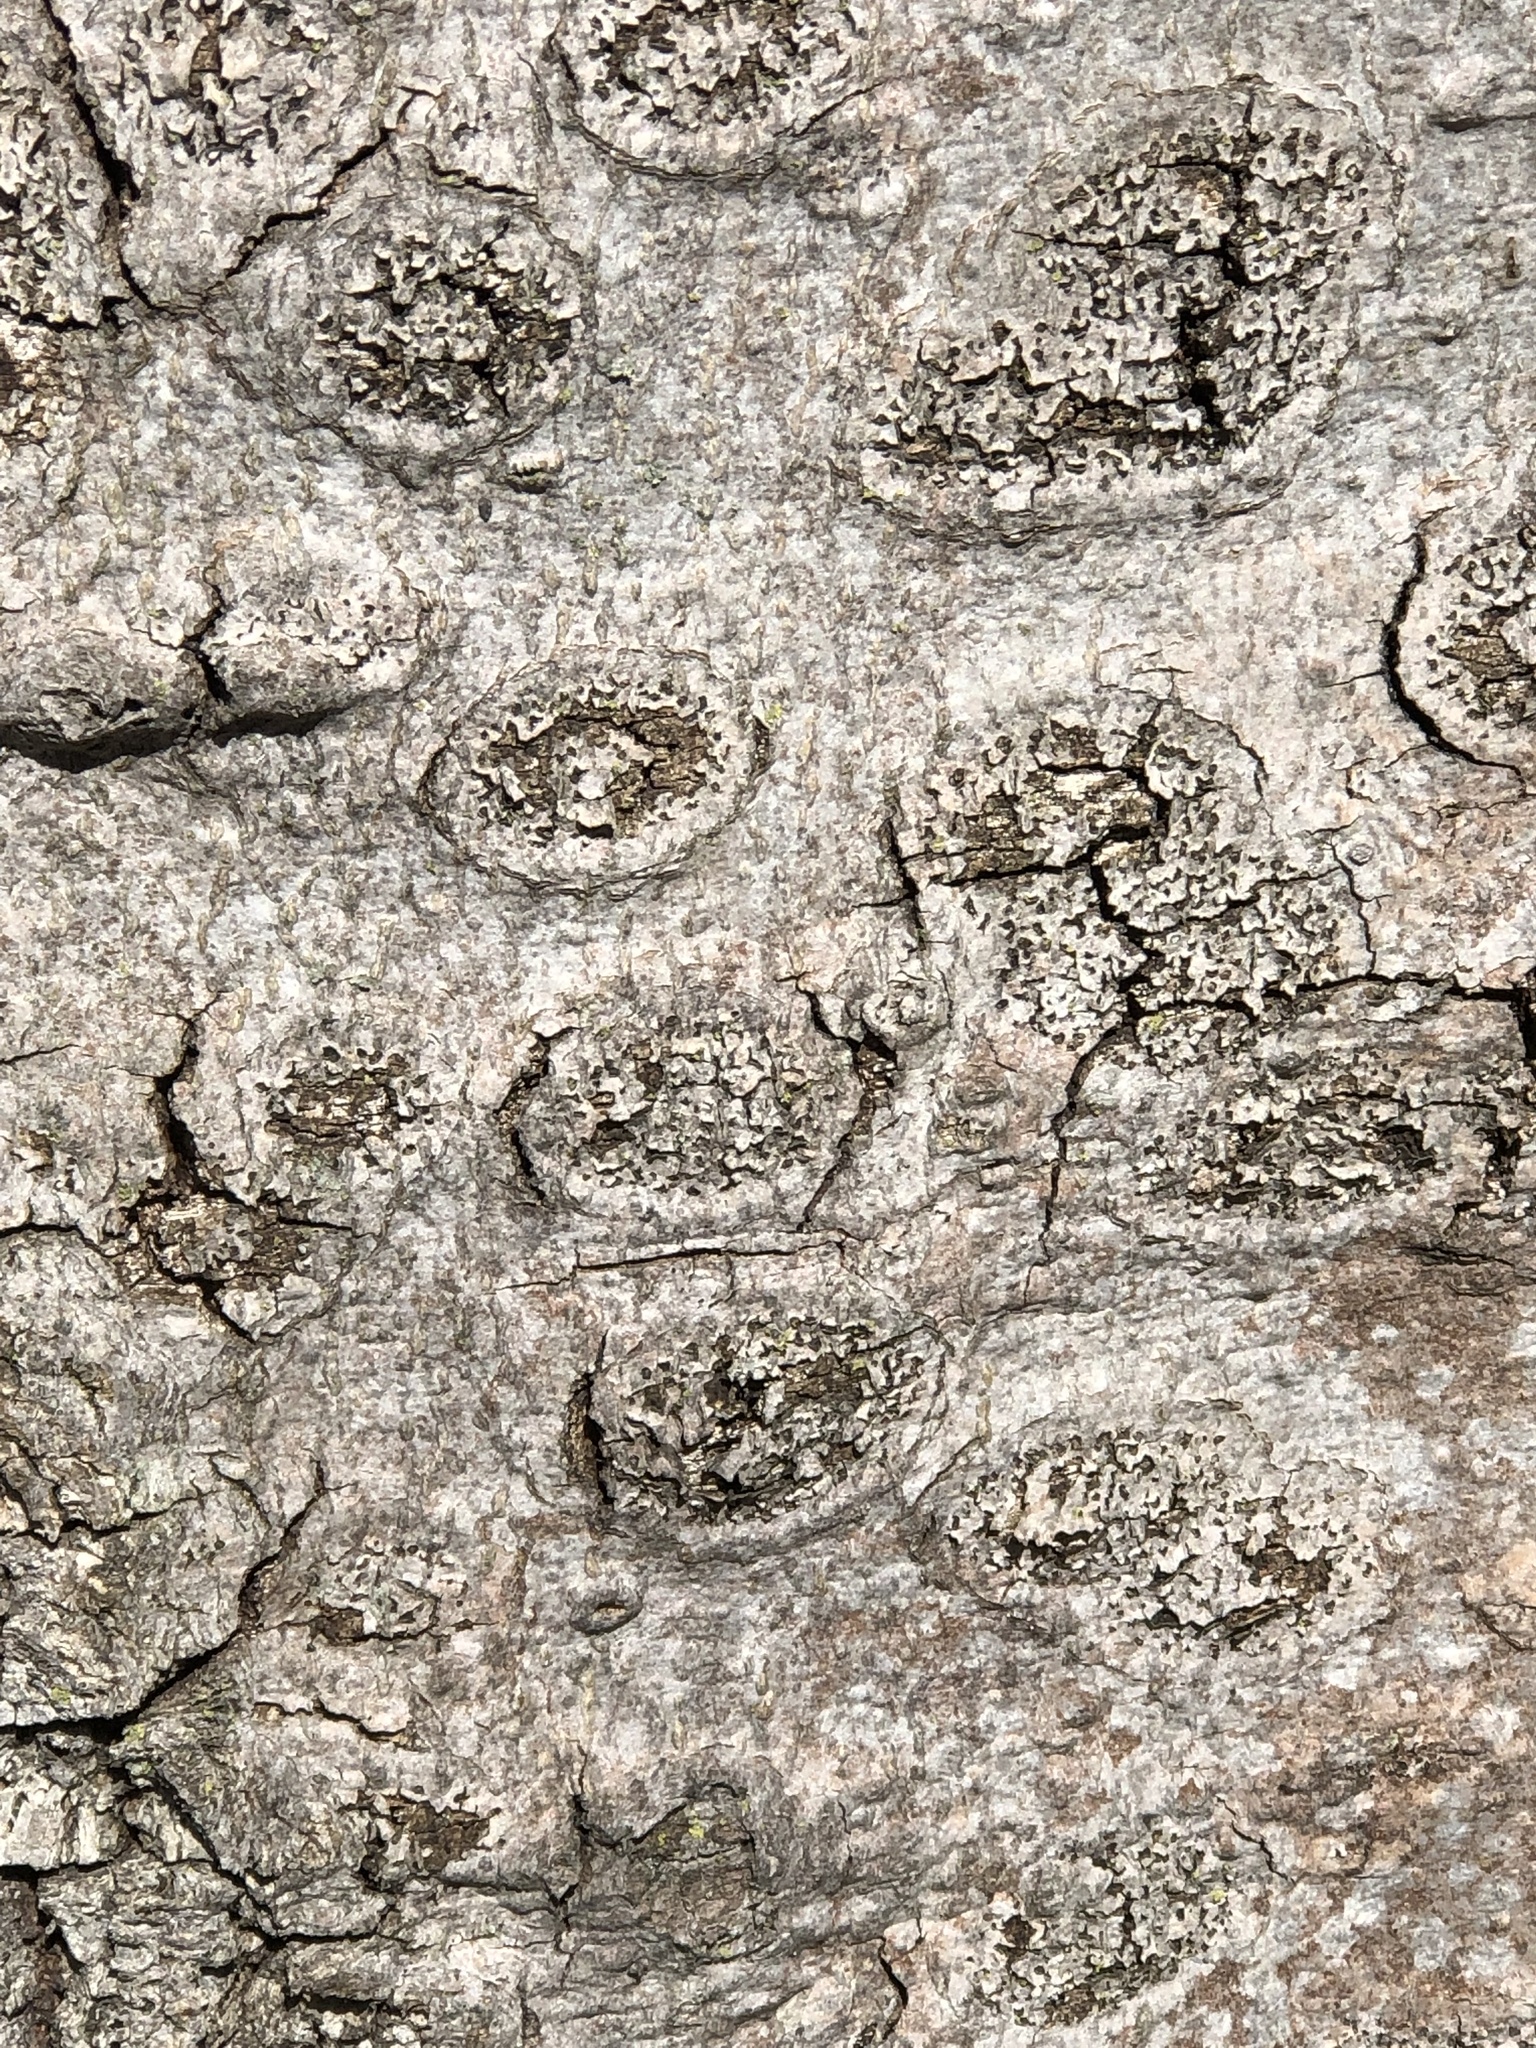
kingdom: Fungi
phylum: Ascomycota
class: Sordariomycetes
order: Hypocreales
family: Nectriaceae
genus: Neonectria
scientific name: Neonectria faginata
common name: Beech bark canker
